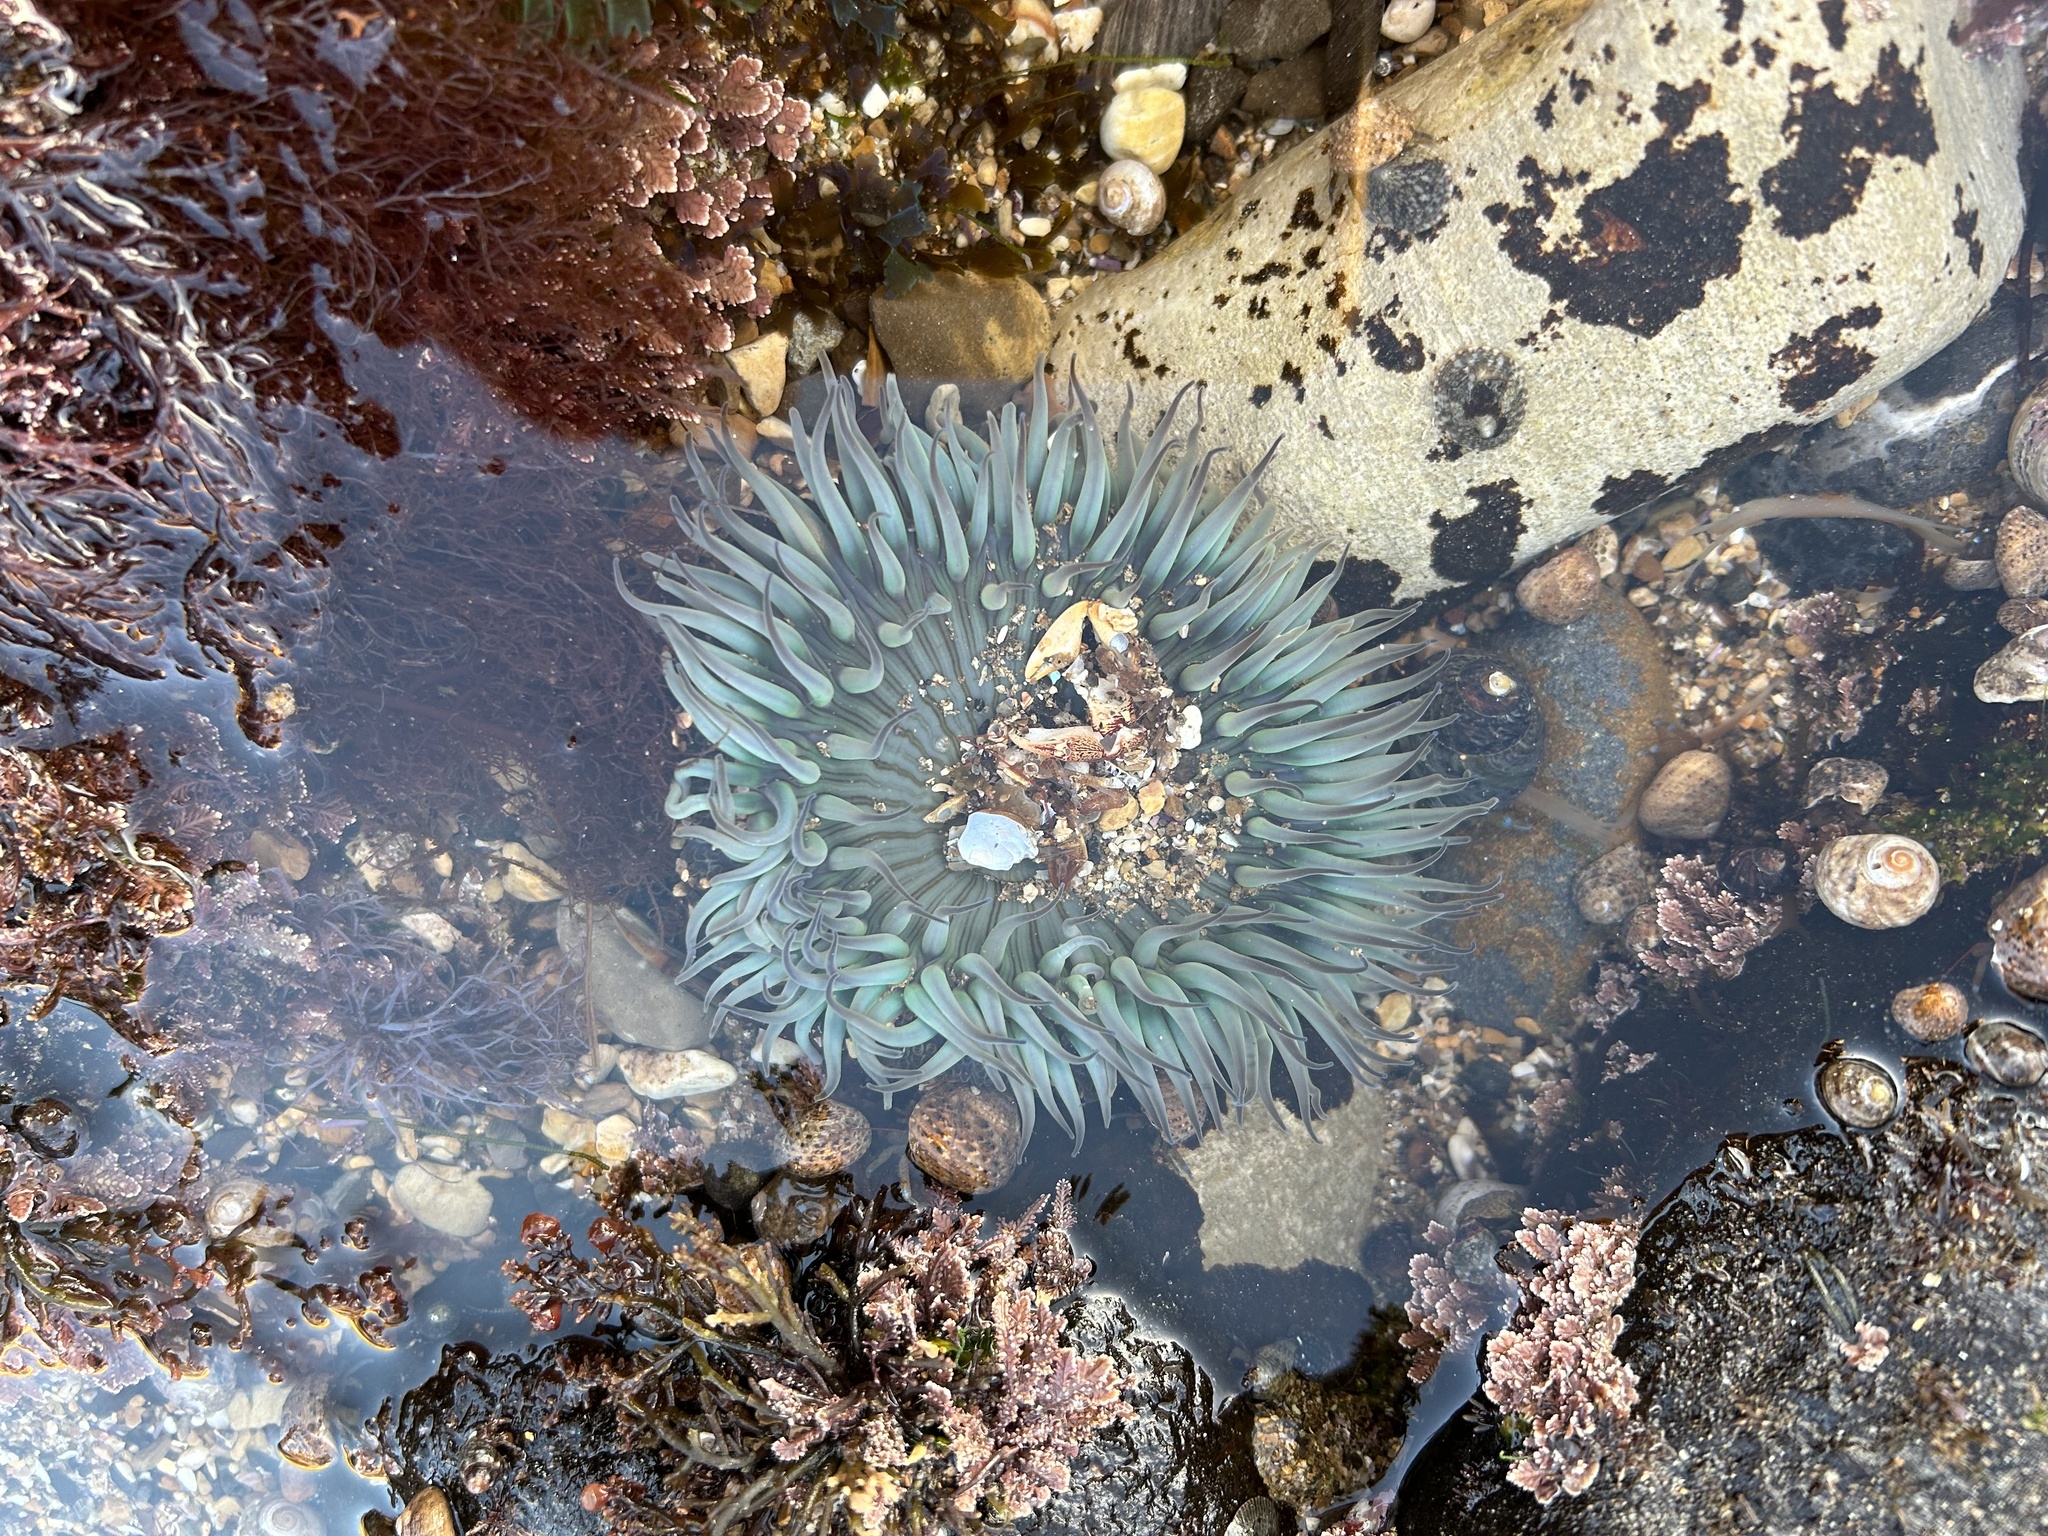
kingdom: Animalia
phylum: Cnidaria
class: Anthozoa
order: Actiniaria
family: Actiniidae
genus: Anthopleura
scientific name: Anthopleura sola
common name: Sun anemone
